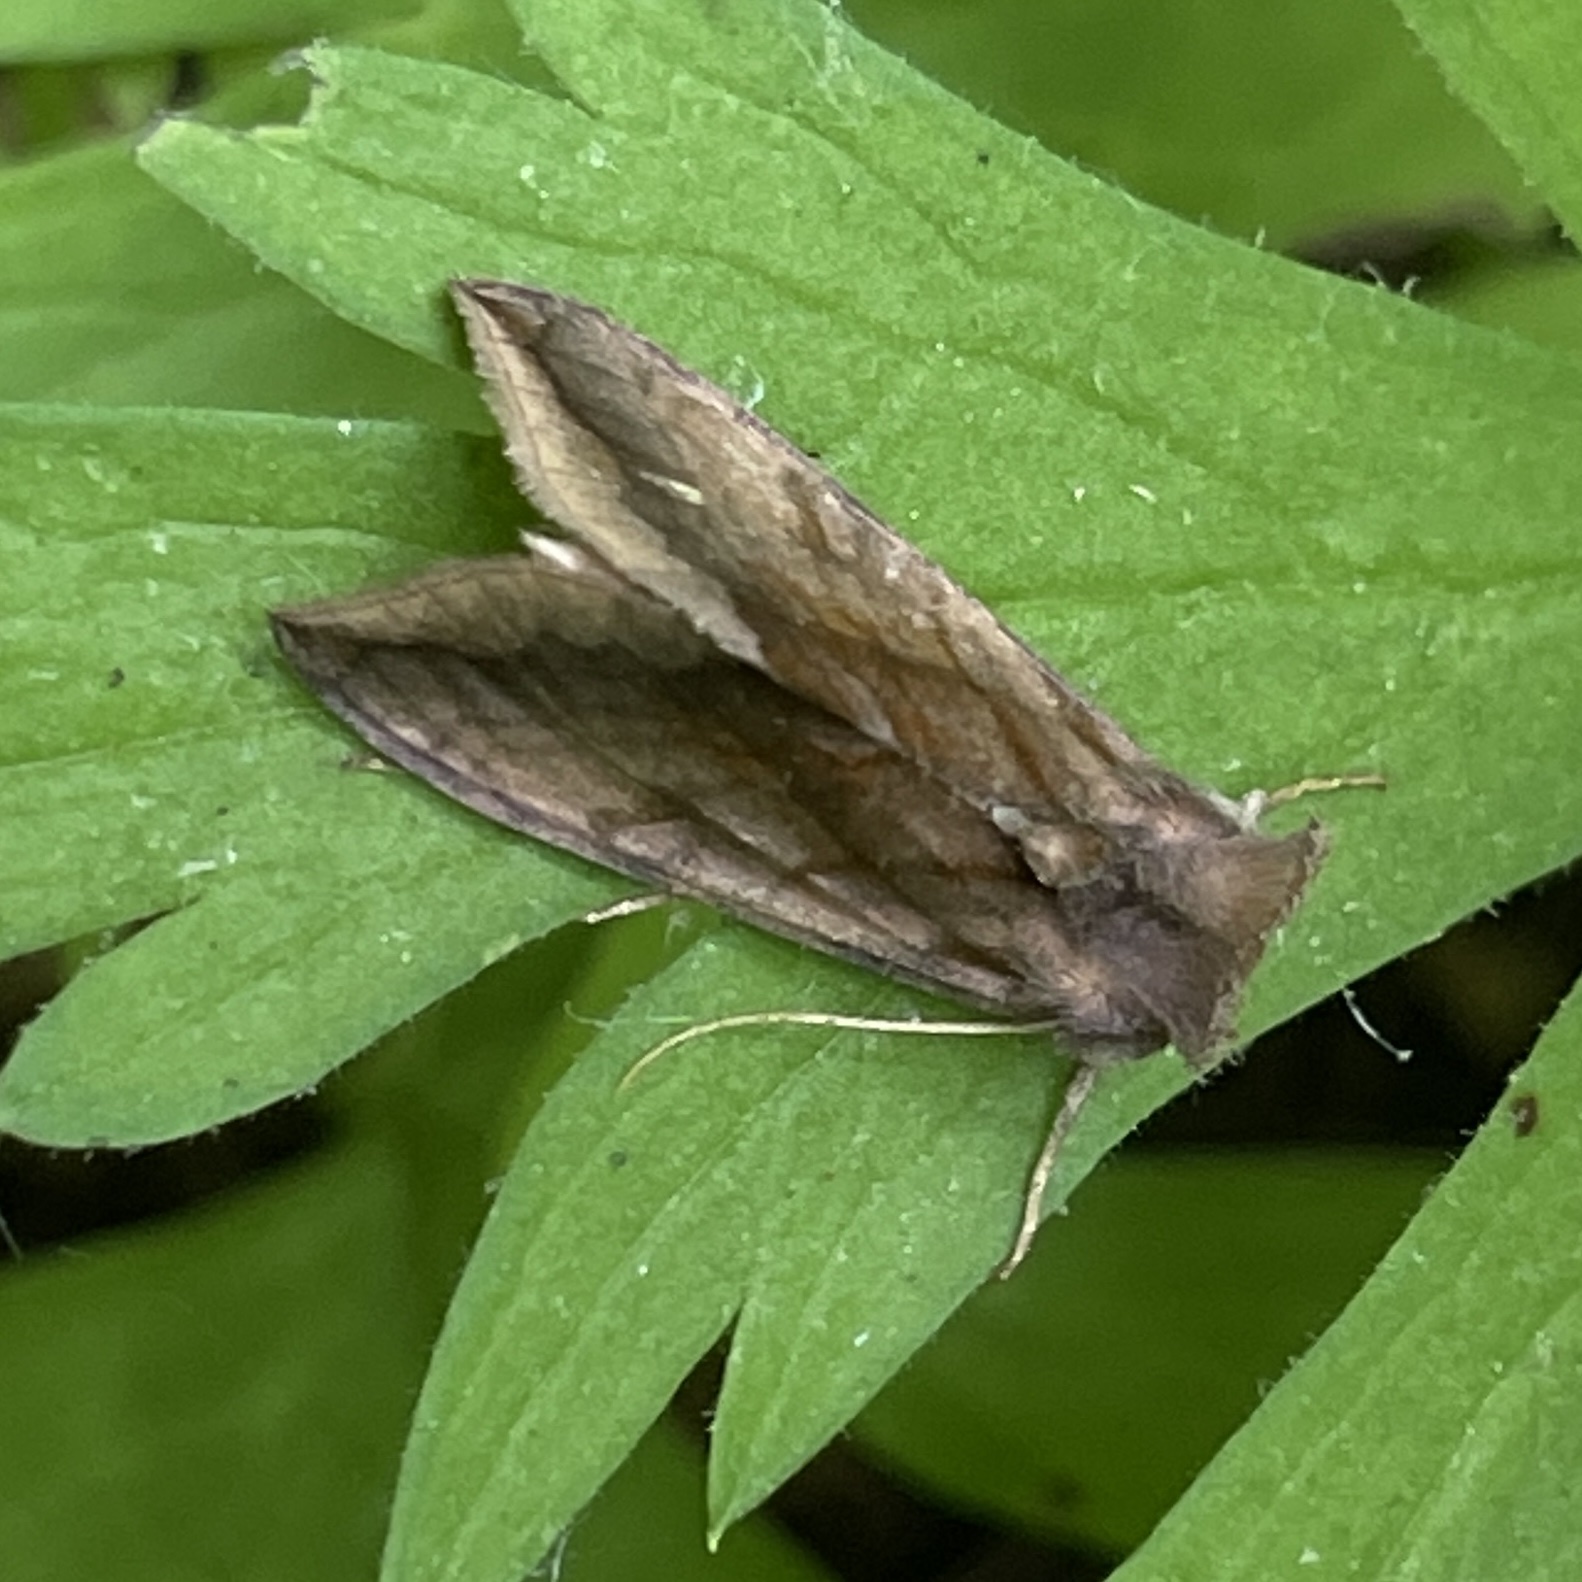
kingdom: Animalia
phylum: Arthropoda
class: Insecta
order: Lepidoptera
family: Noctuidae
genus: Allagrapha
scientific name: Allagrapha aerea
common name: Unspotted looper moth
